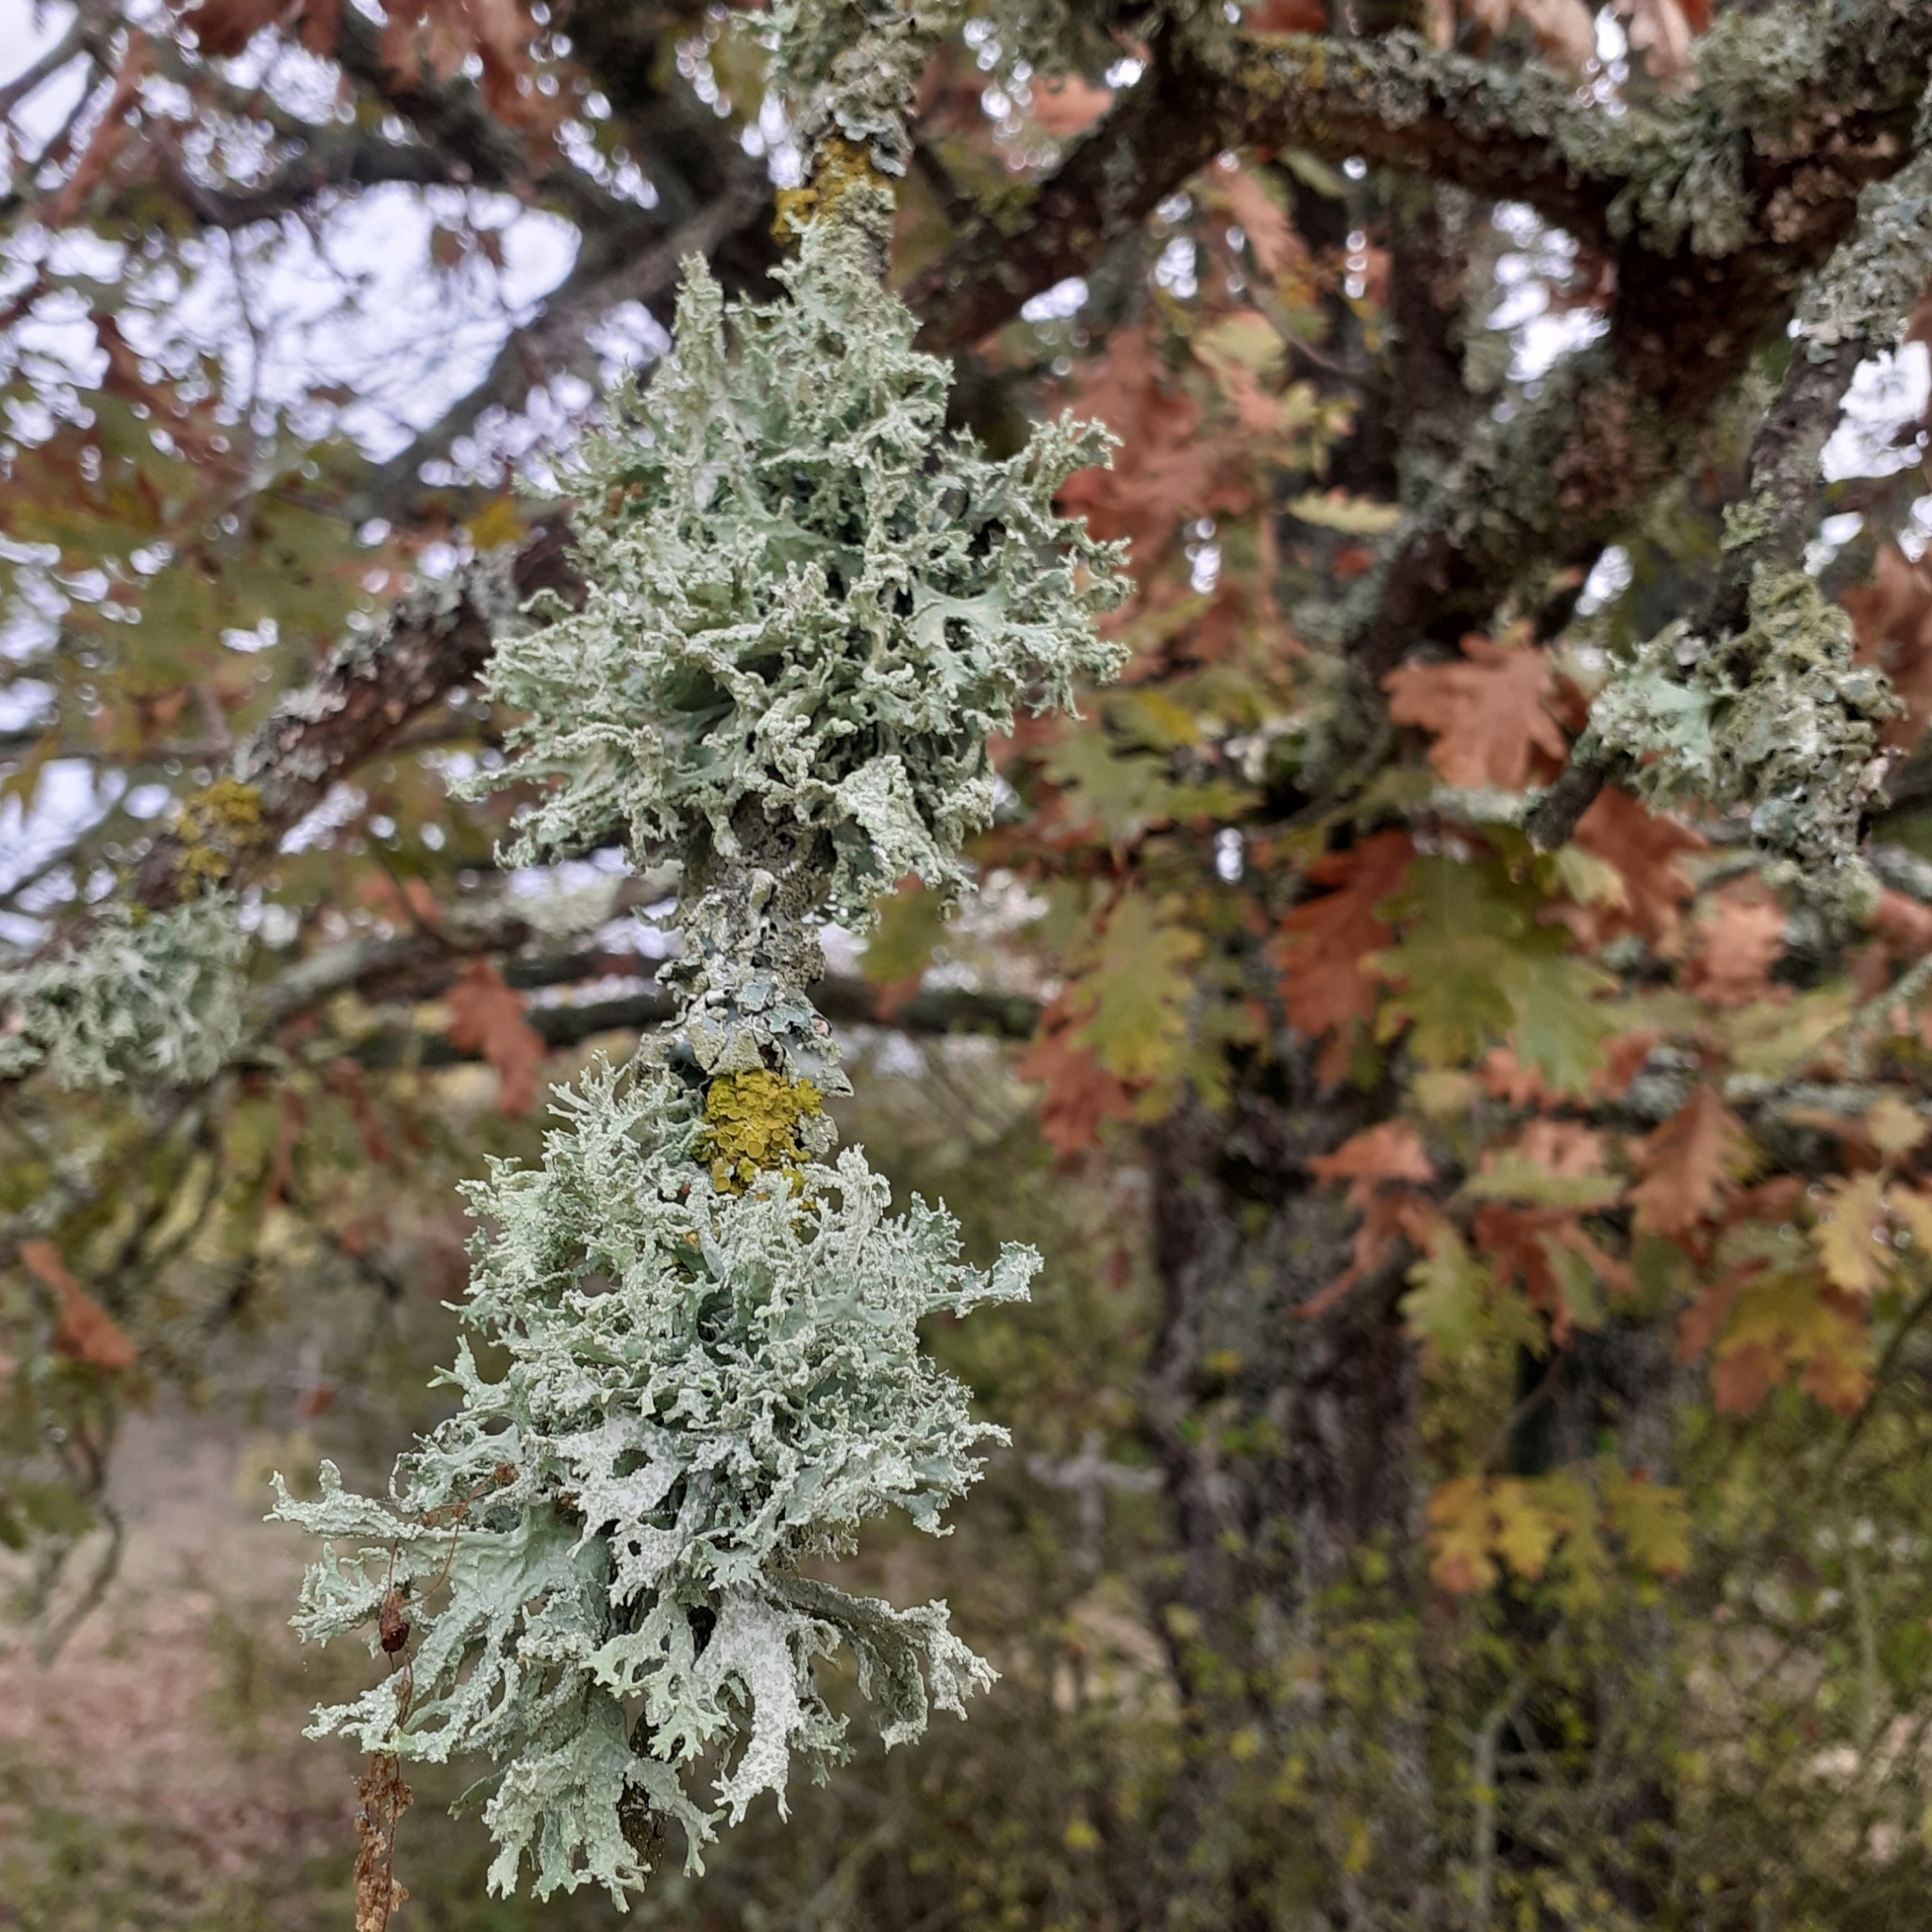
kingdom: Fungi
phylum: Ascomycota
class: Lecanoromycetes
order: Lecanorales
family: Parmeliaceae
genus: Evernia
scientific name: Evernia prunastri
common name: Oak moss
